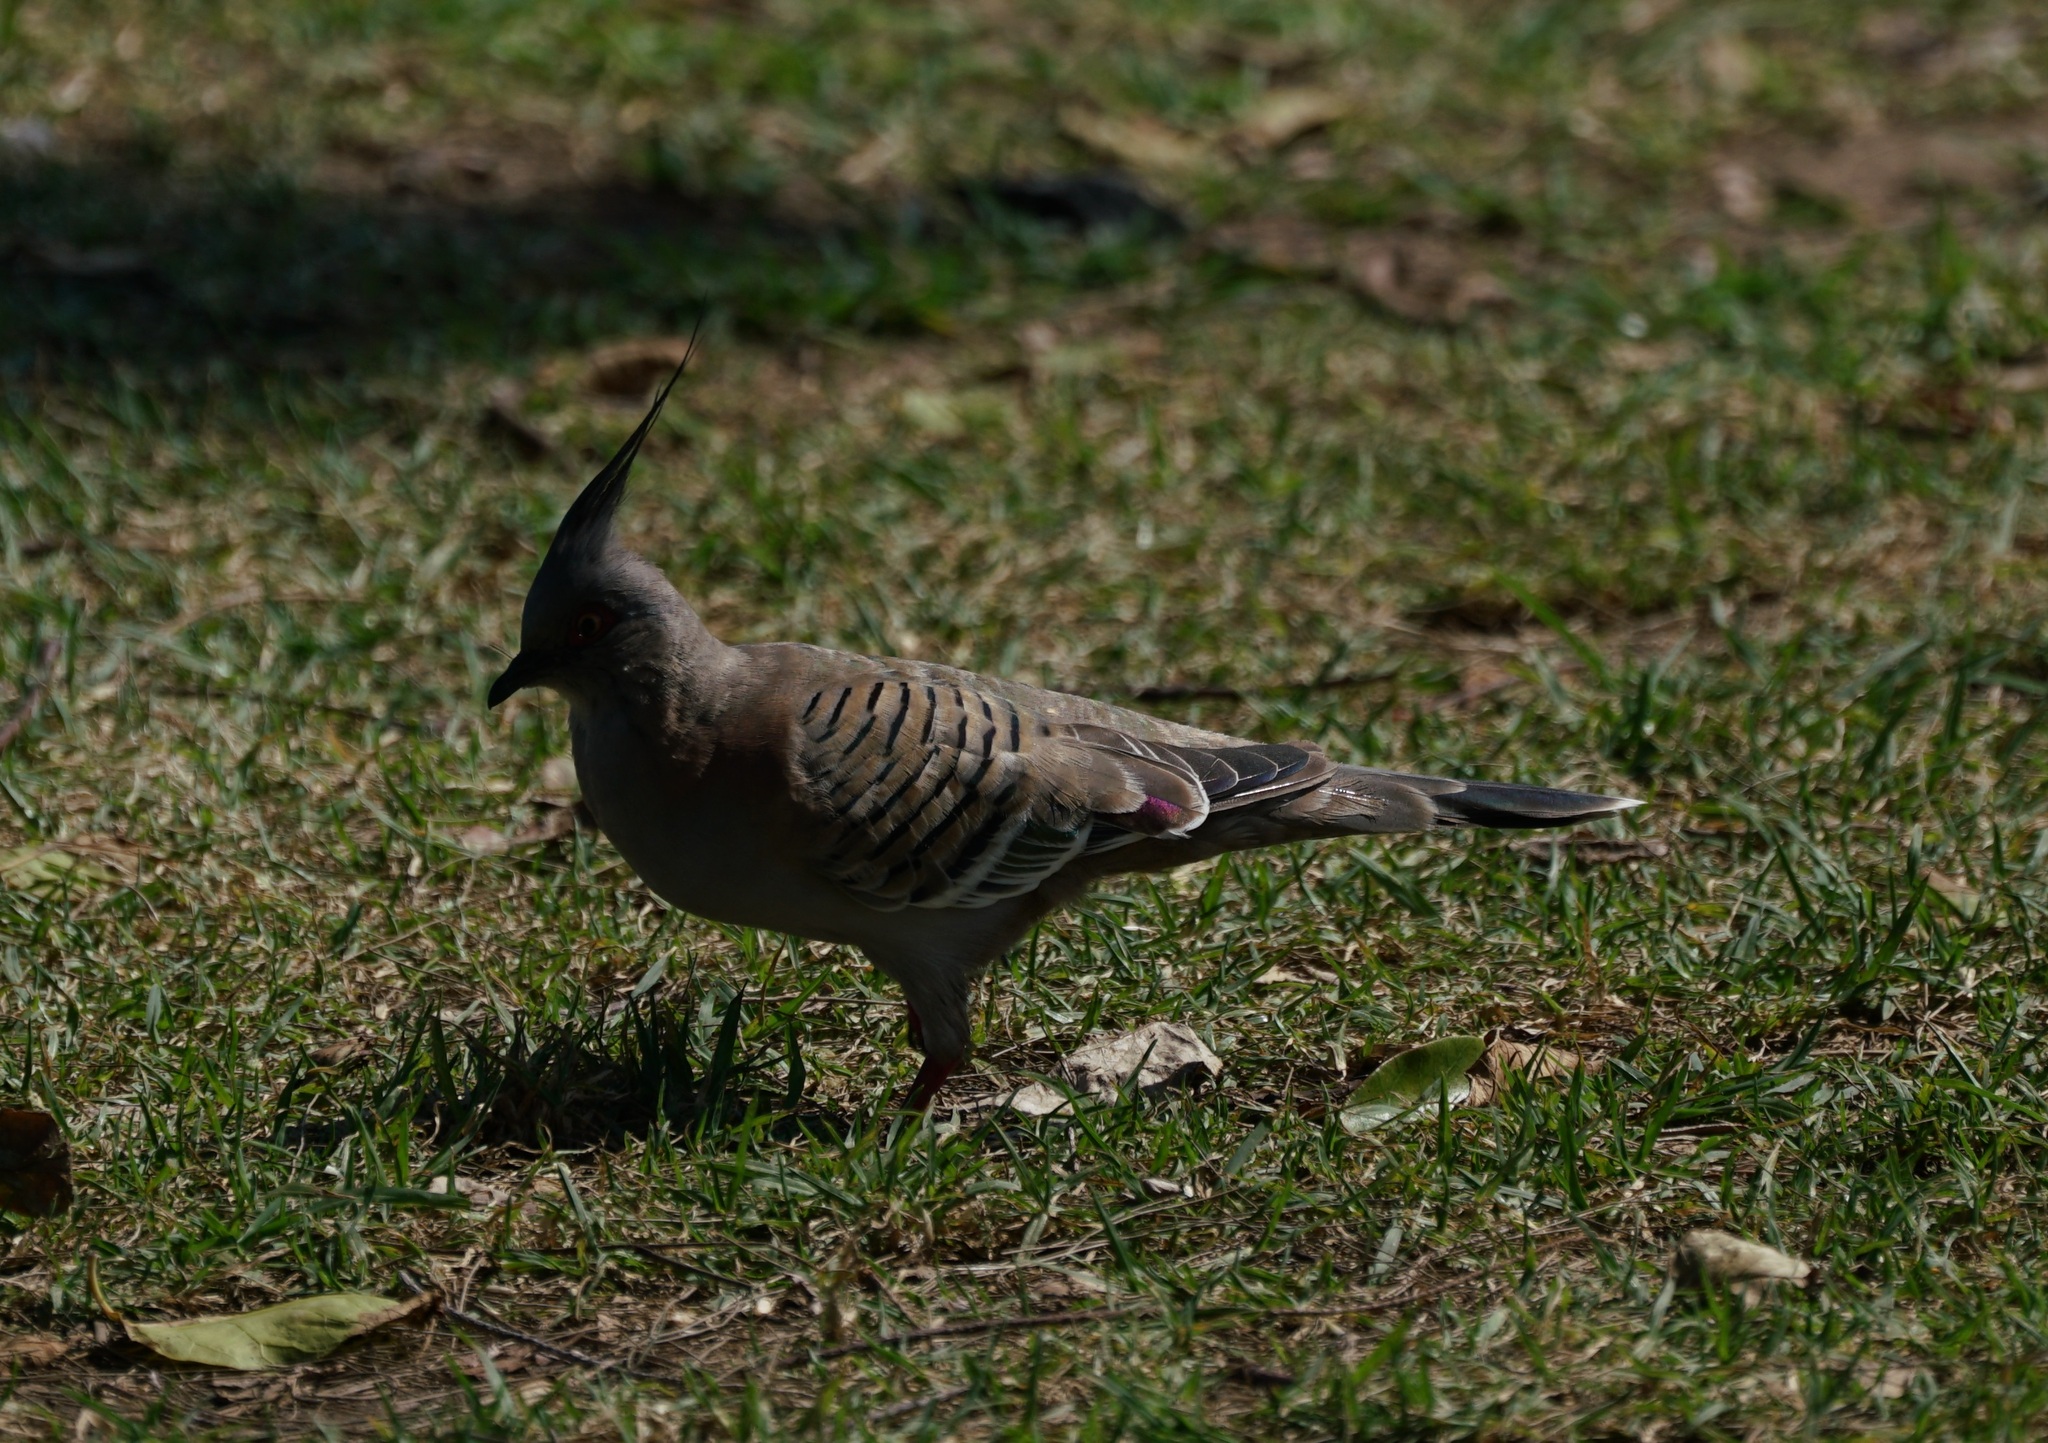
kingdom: Animalia
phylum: Chordata
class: Aves
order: Columbiformes
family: Columbidae
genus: Ocyphaps
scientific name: Ocyphaps lophotes
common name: Crested pigeon
